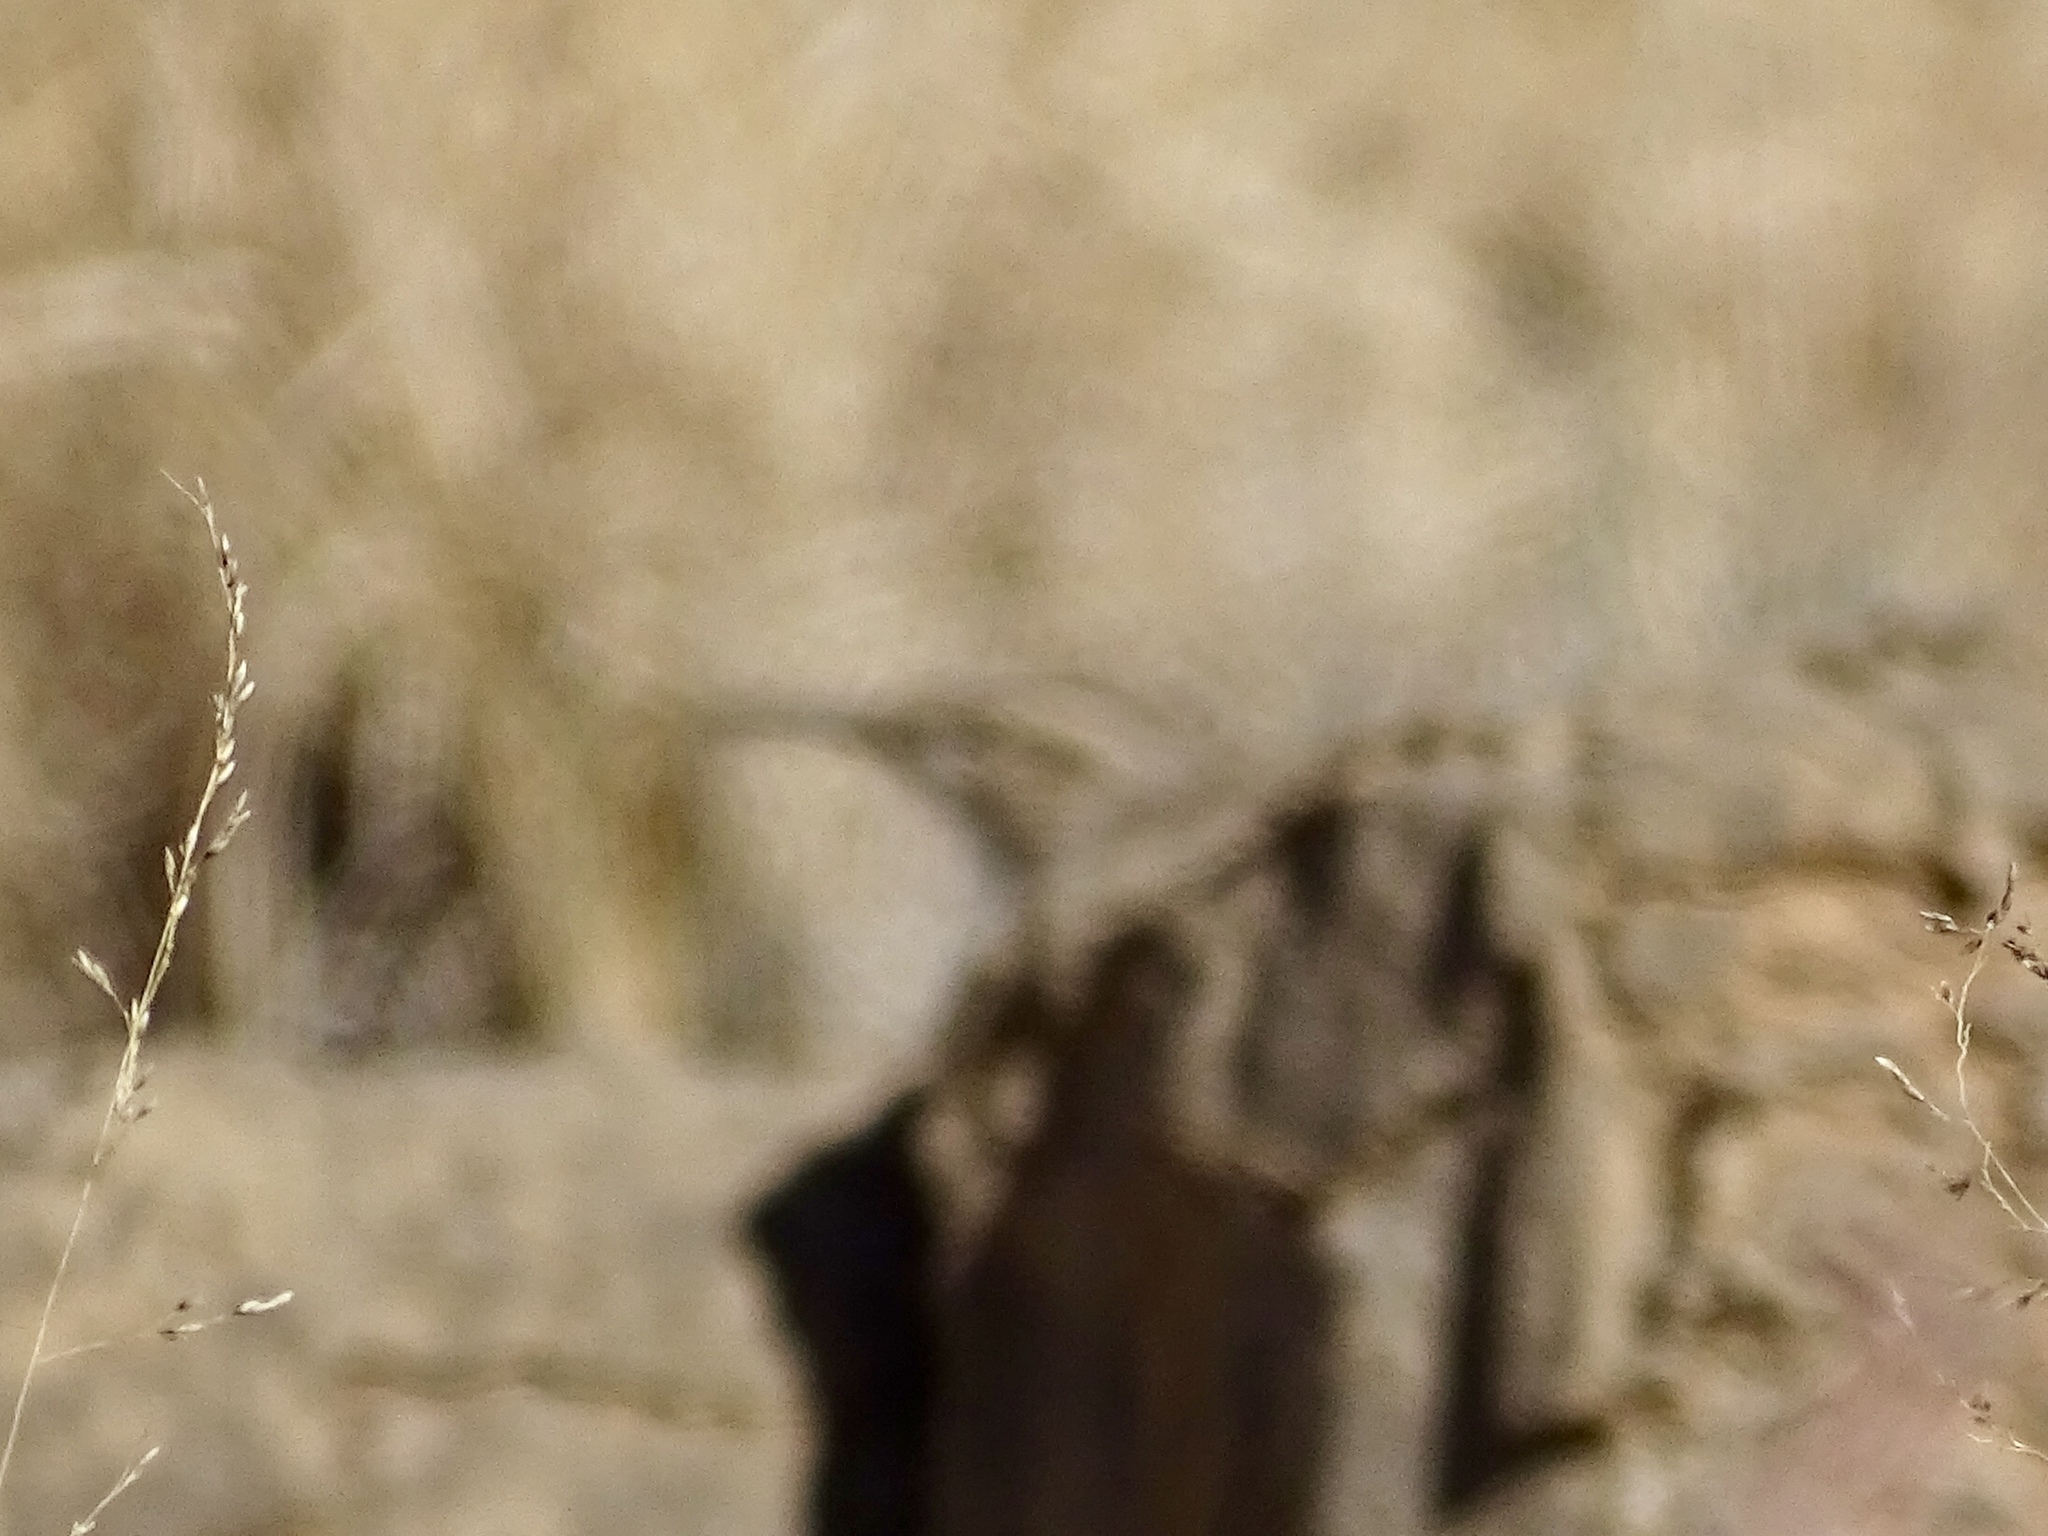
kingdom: Animalia
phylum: Chordata
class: Aves
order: Passeriformes
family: Troglodytidae
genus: Salpinctes
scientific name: Salpinctes obsoletus
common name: Rock wren
